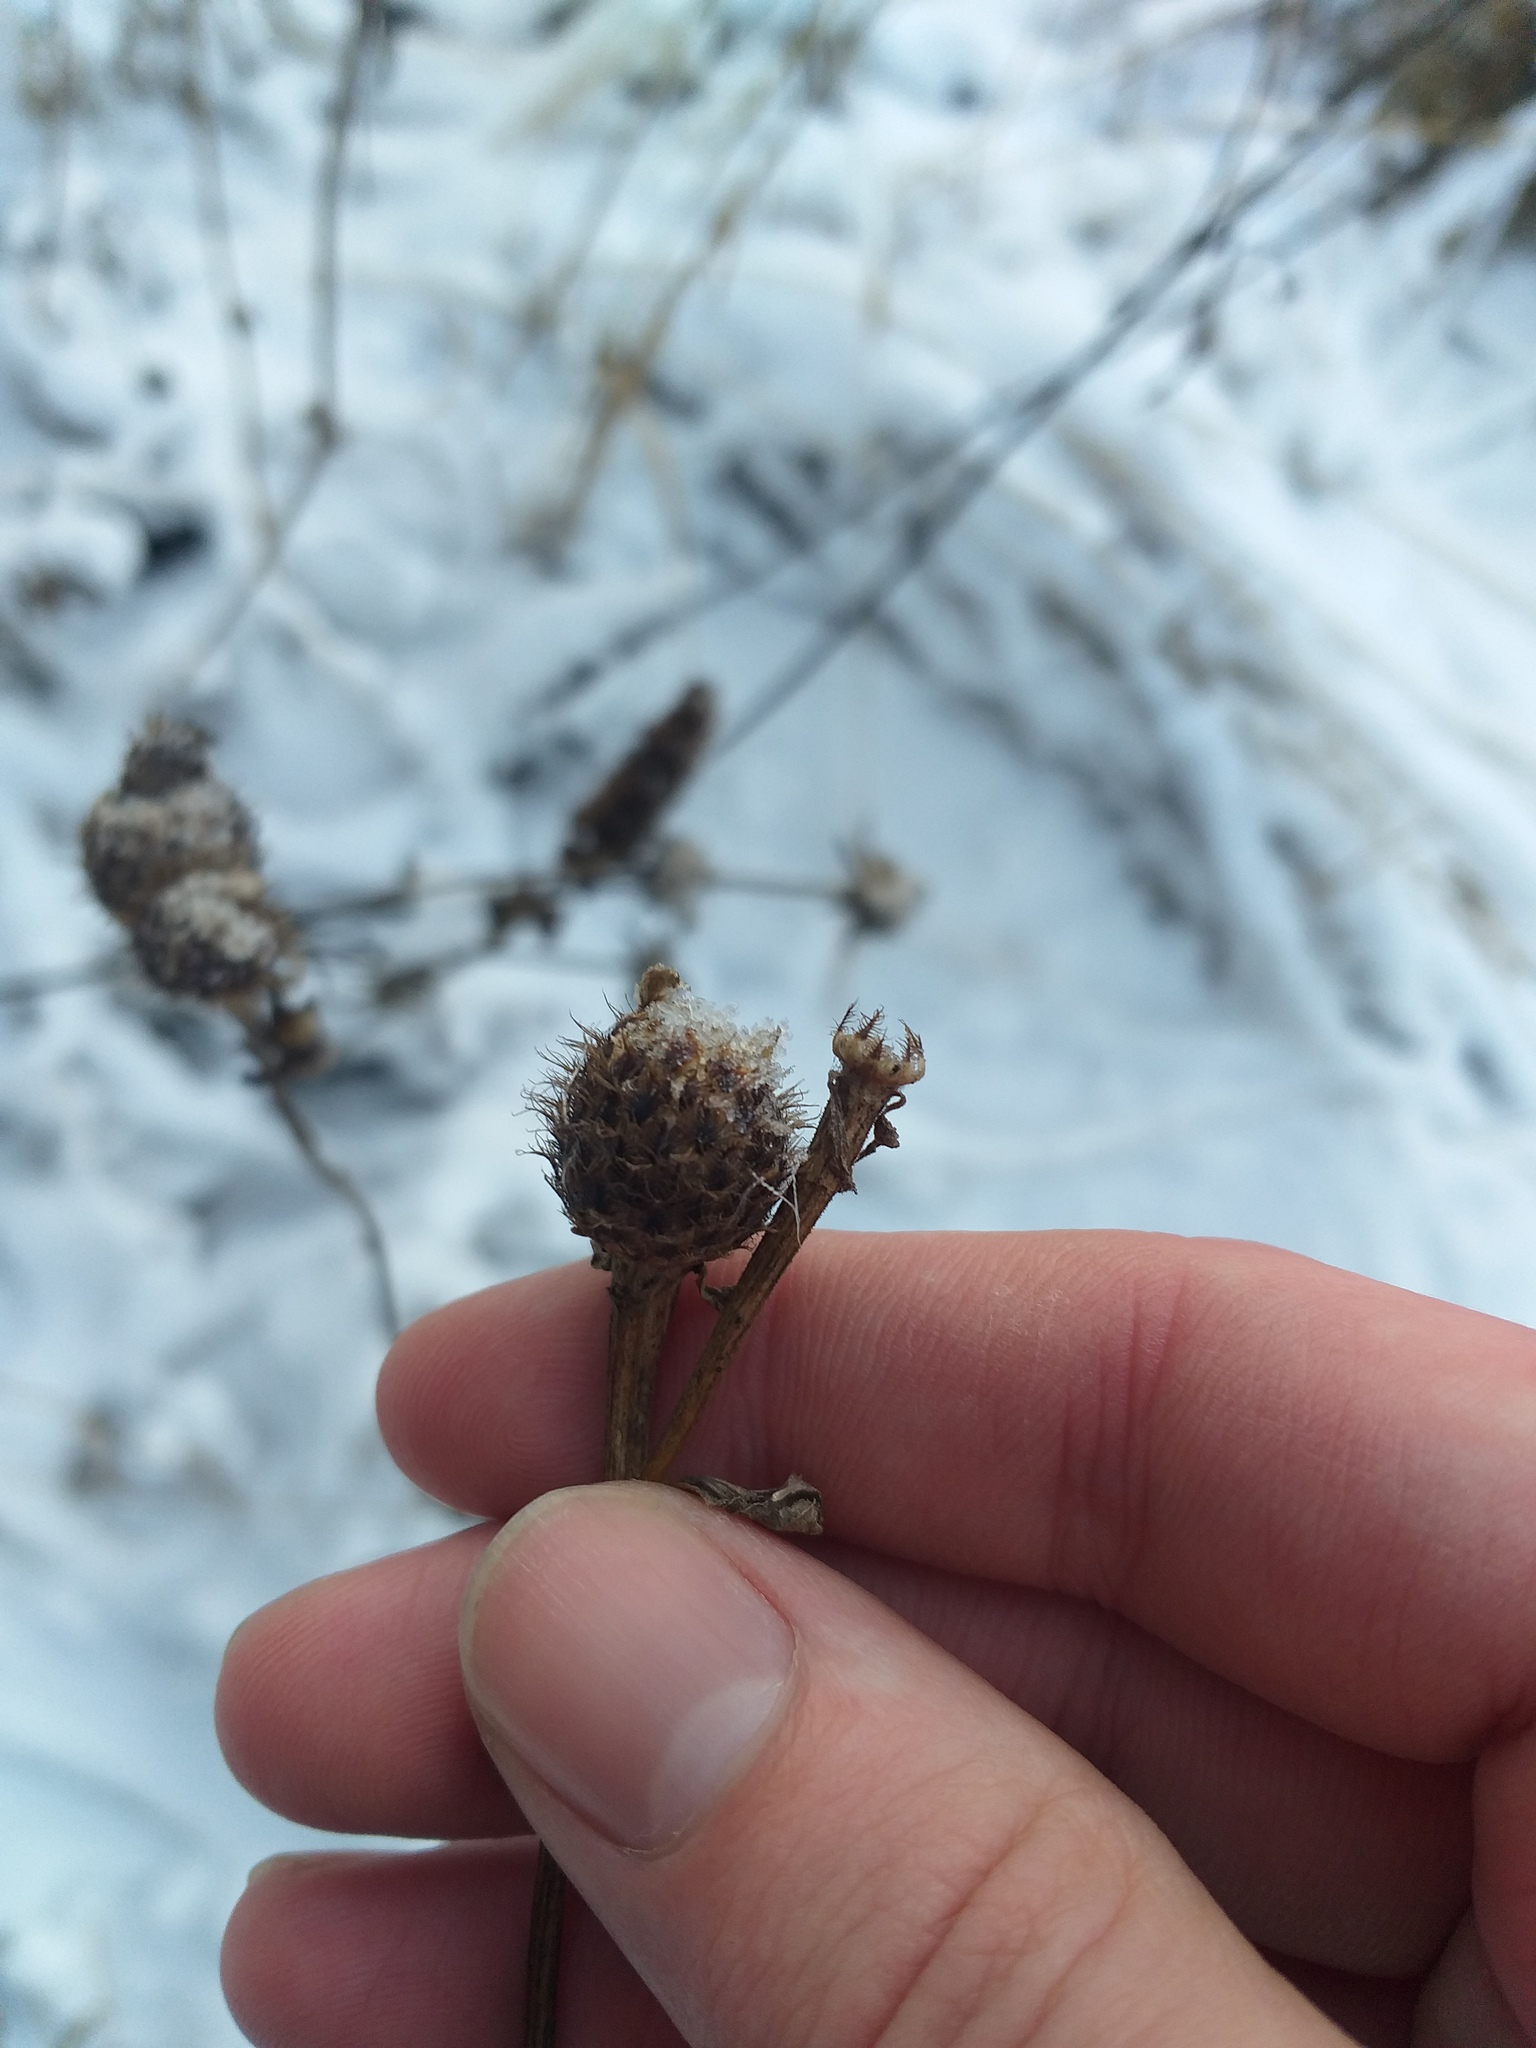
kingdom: Plantae
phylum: Tracheophyta
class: Magnoliopsida
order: Asterales
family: Asteraceae
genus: Centaurea
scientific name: Centaurea pseudophrygia
